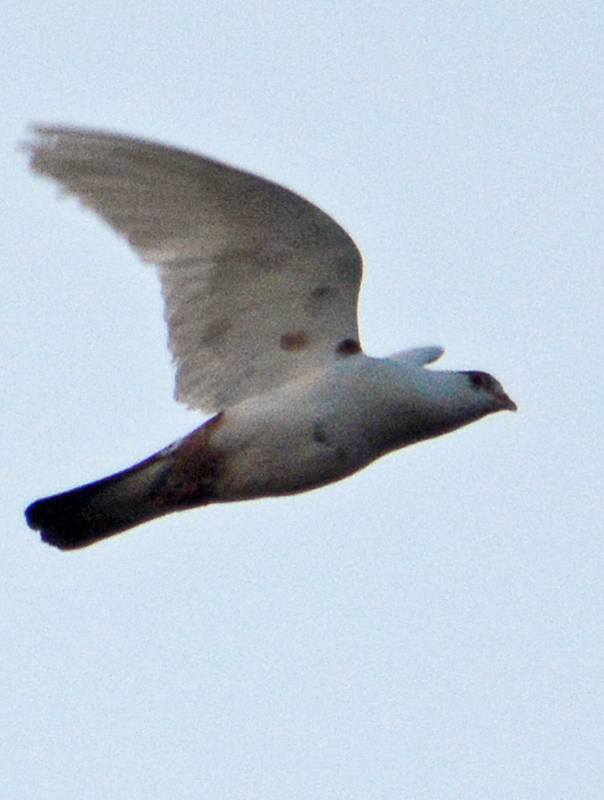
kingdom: Animalia
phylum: Chordata
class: Aves
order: Columbiformes
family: Columbidae
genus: Columba
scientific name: Columba livia
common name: Rock pigeon
